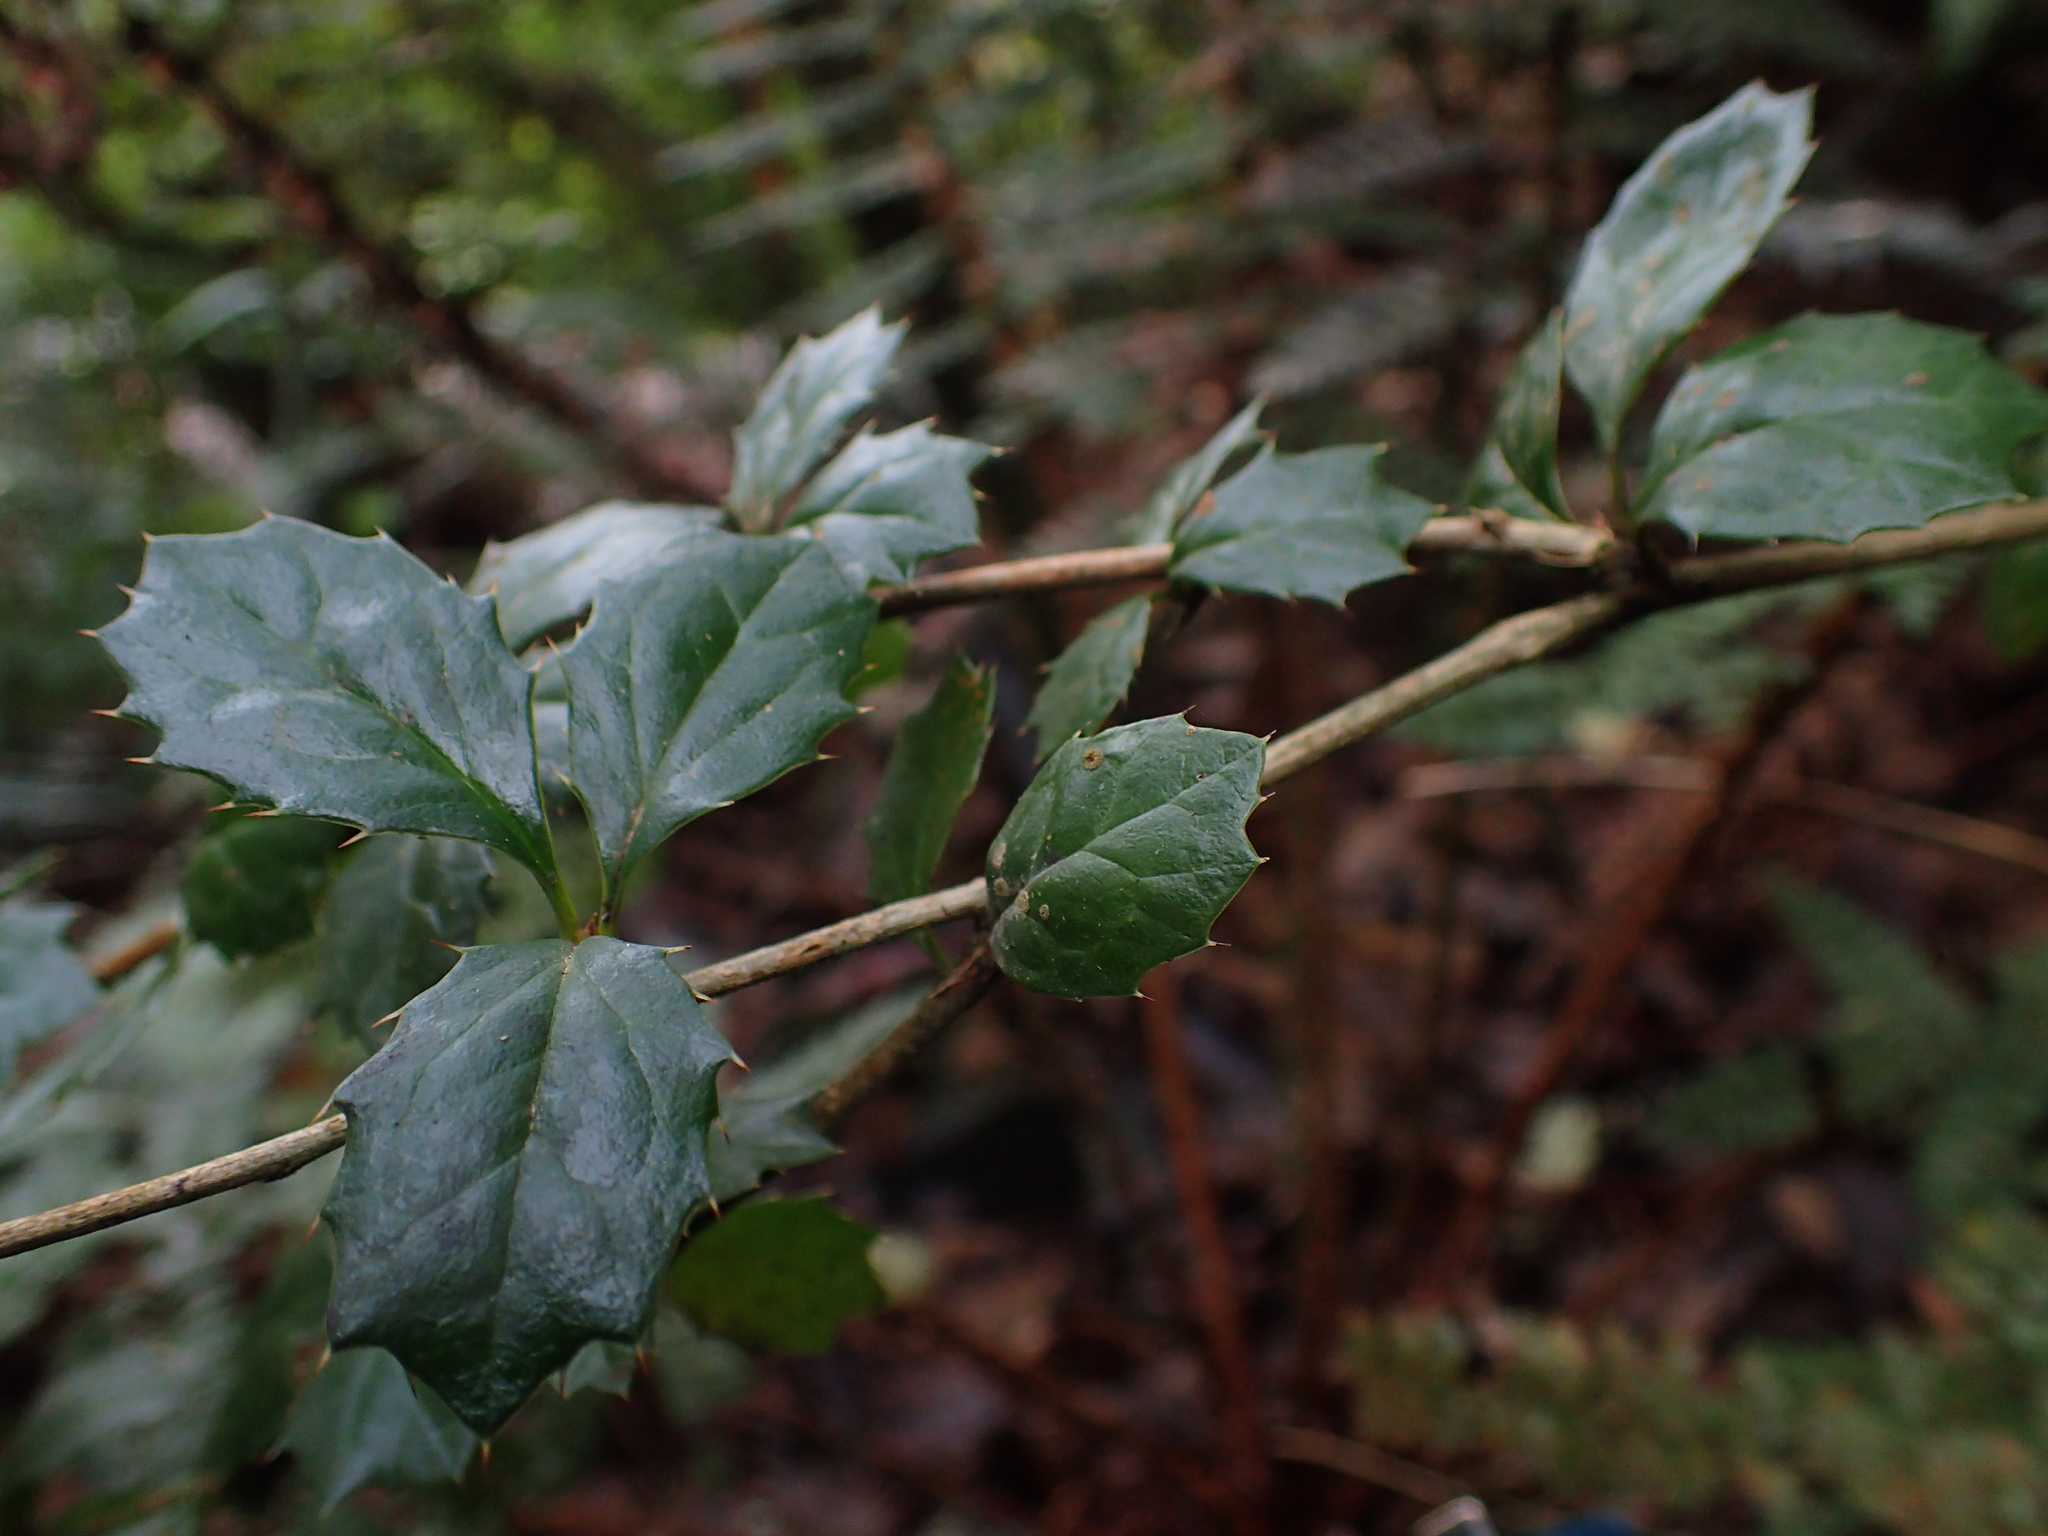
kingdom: Plantae
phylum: Tracheophyta
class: Magnoliopsida
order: Ranunculales
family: Berberidaceae
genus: Berberis
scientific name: Berberis darwinii
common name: Darwin's barberry
